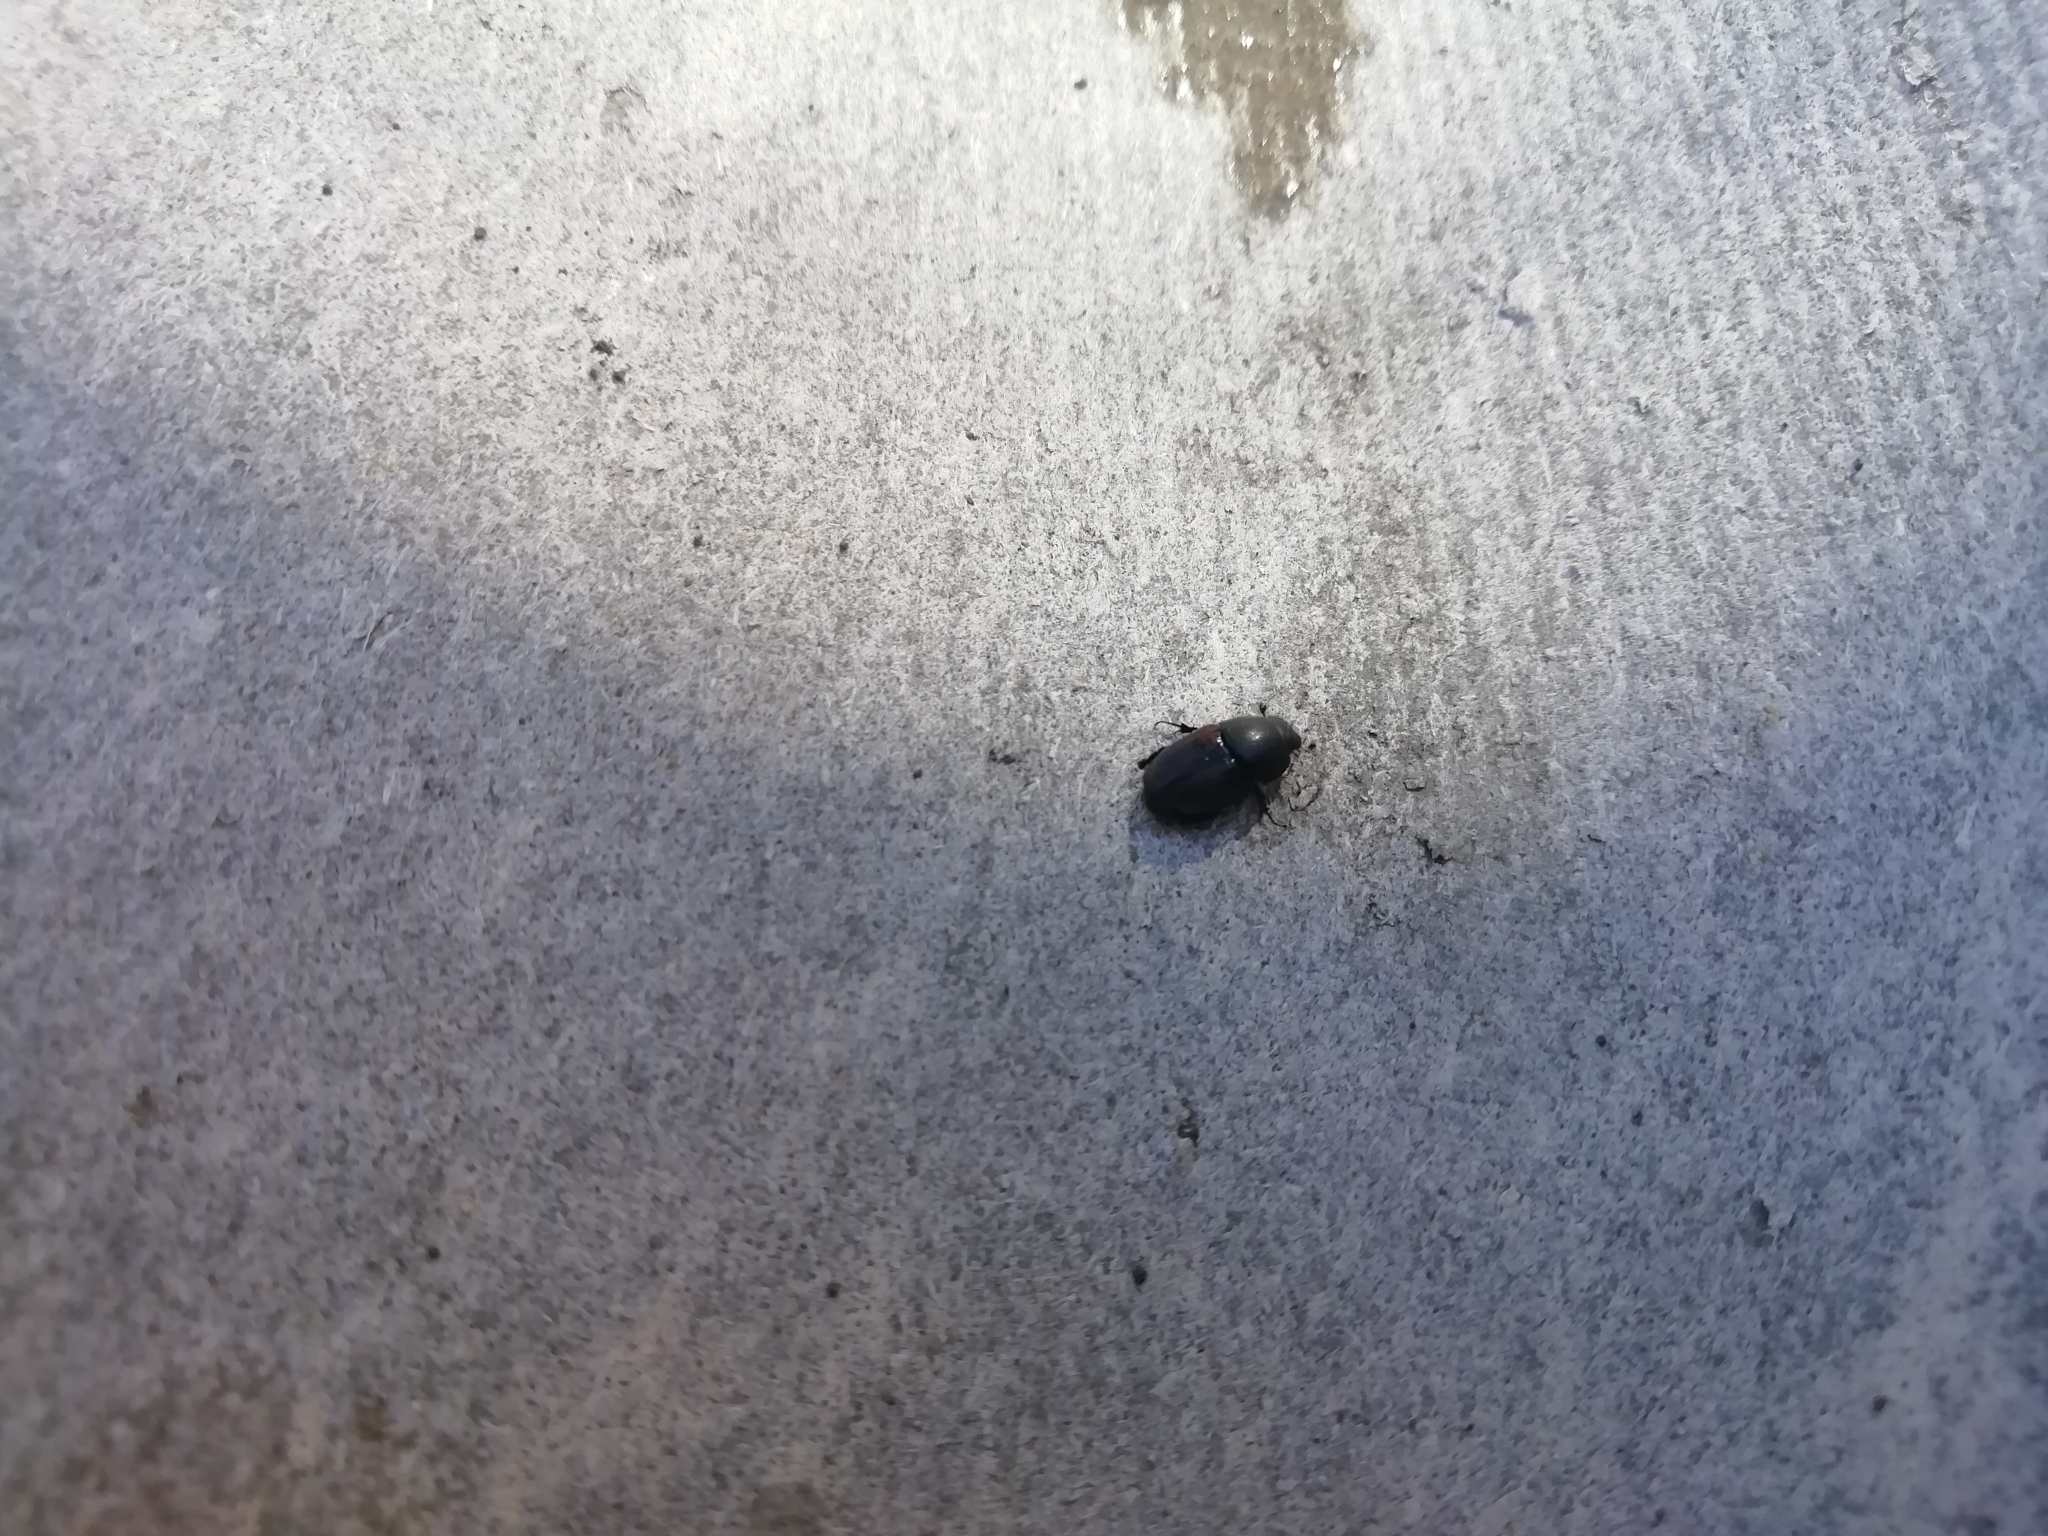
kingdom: Animalia
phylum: Arthropoda
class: Insecta
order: Coleoptera
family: Scarabaeidae
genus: Colobopterus
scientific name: Colobopterus erraticus
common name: Erratic small dung beetle
